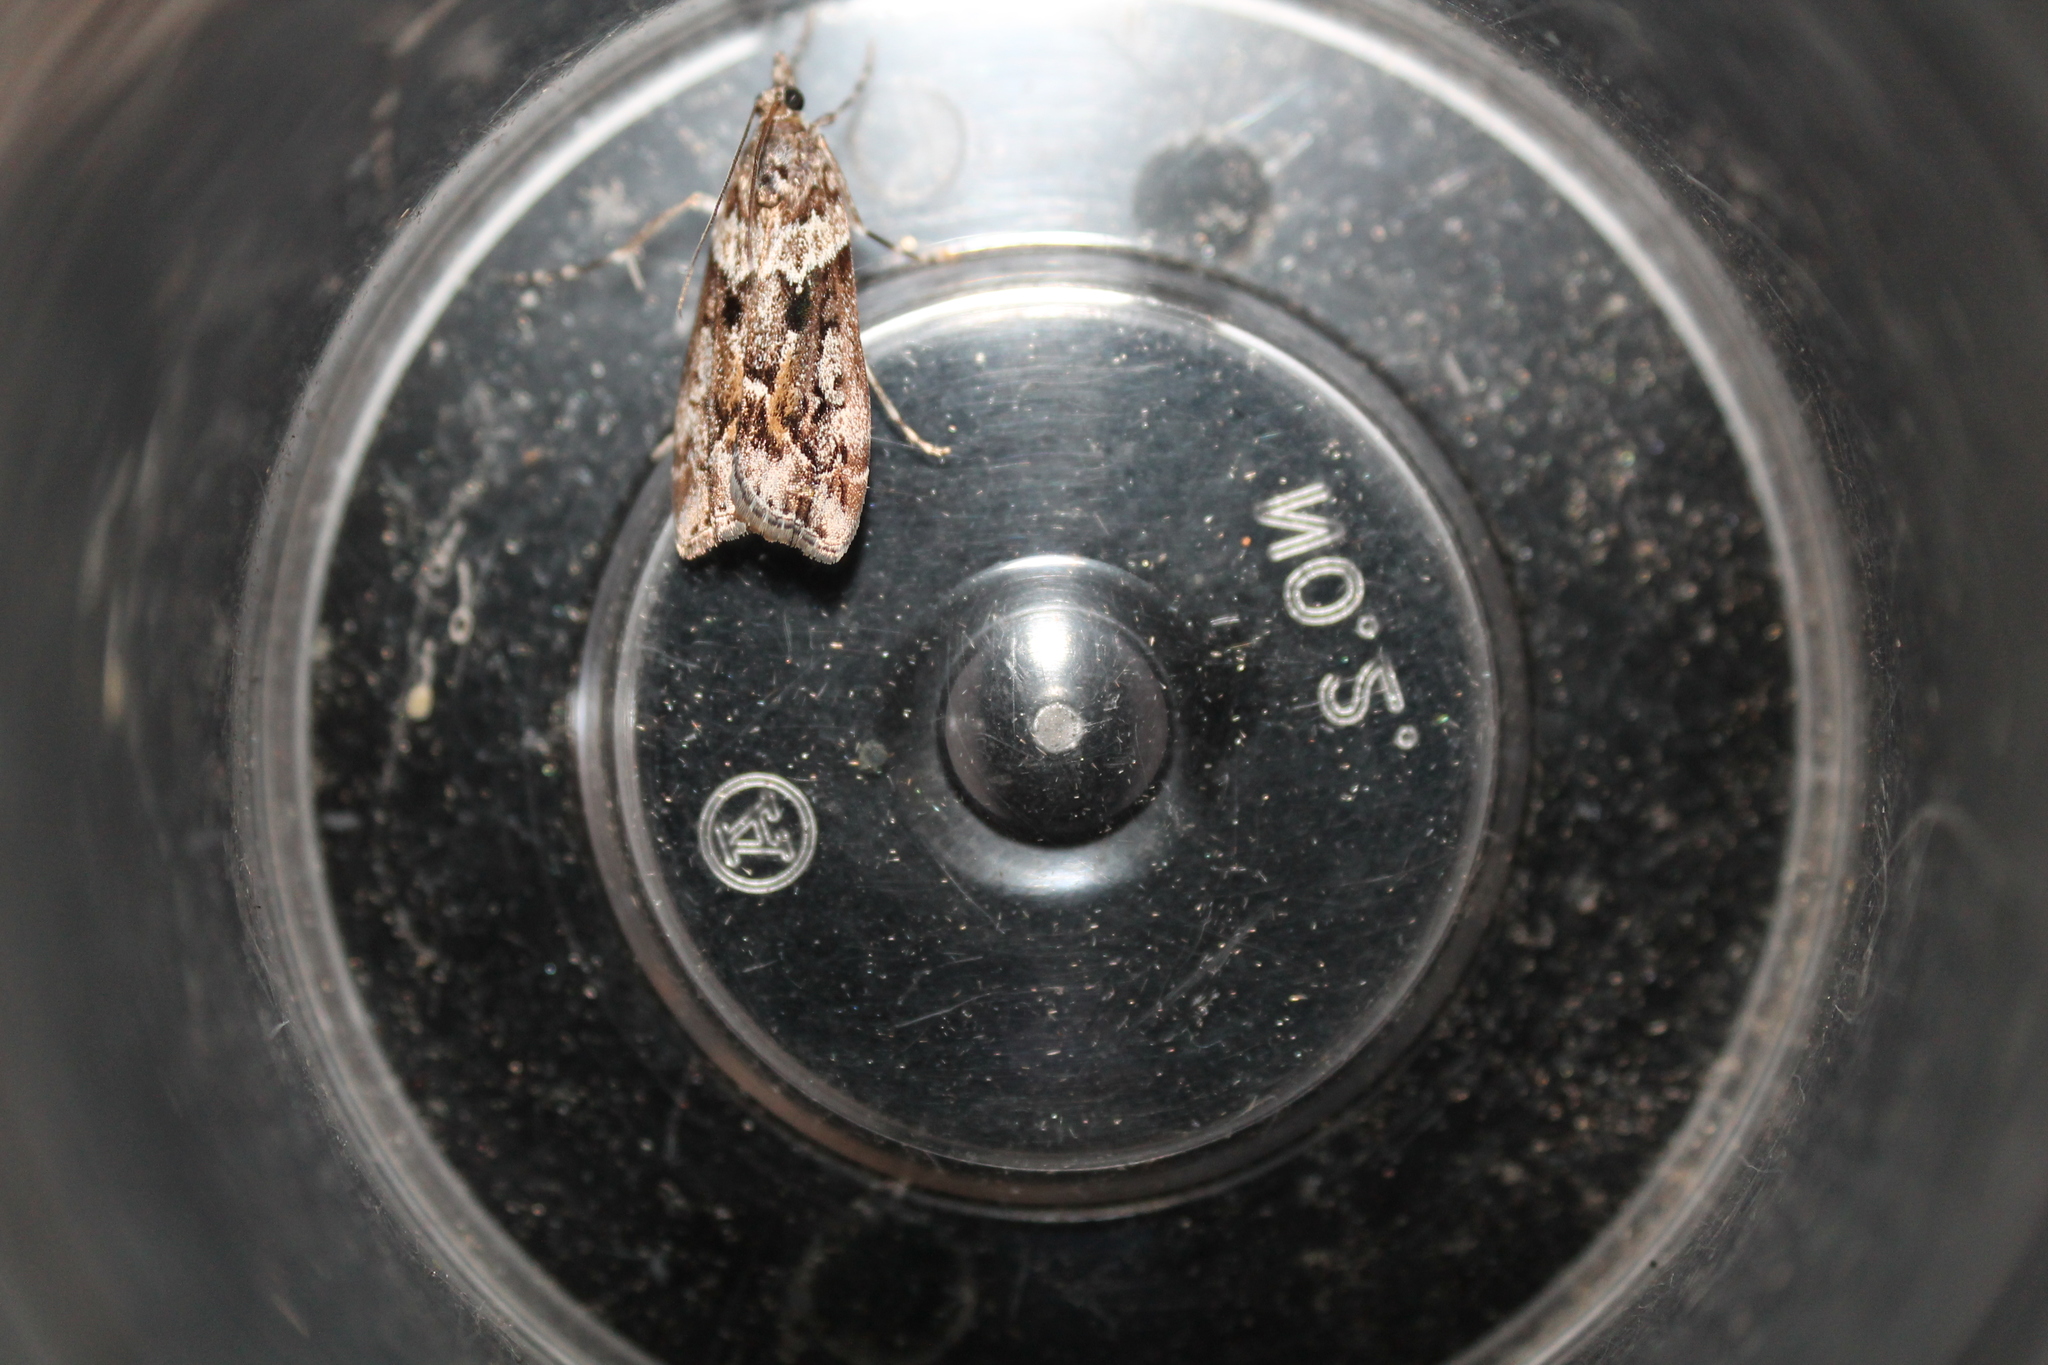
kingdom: Animalia
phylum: Arthropoda
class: Insecta
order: Lepidoptera
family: Crambidae
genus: Eudonia
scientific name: Eudonia submarginalis
